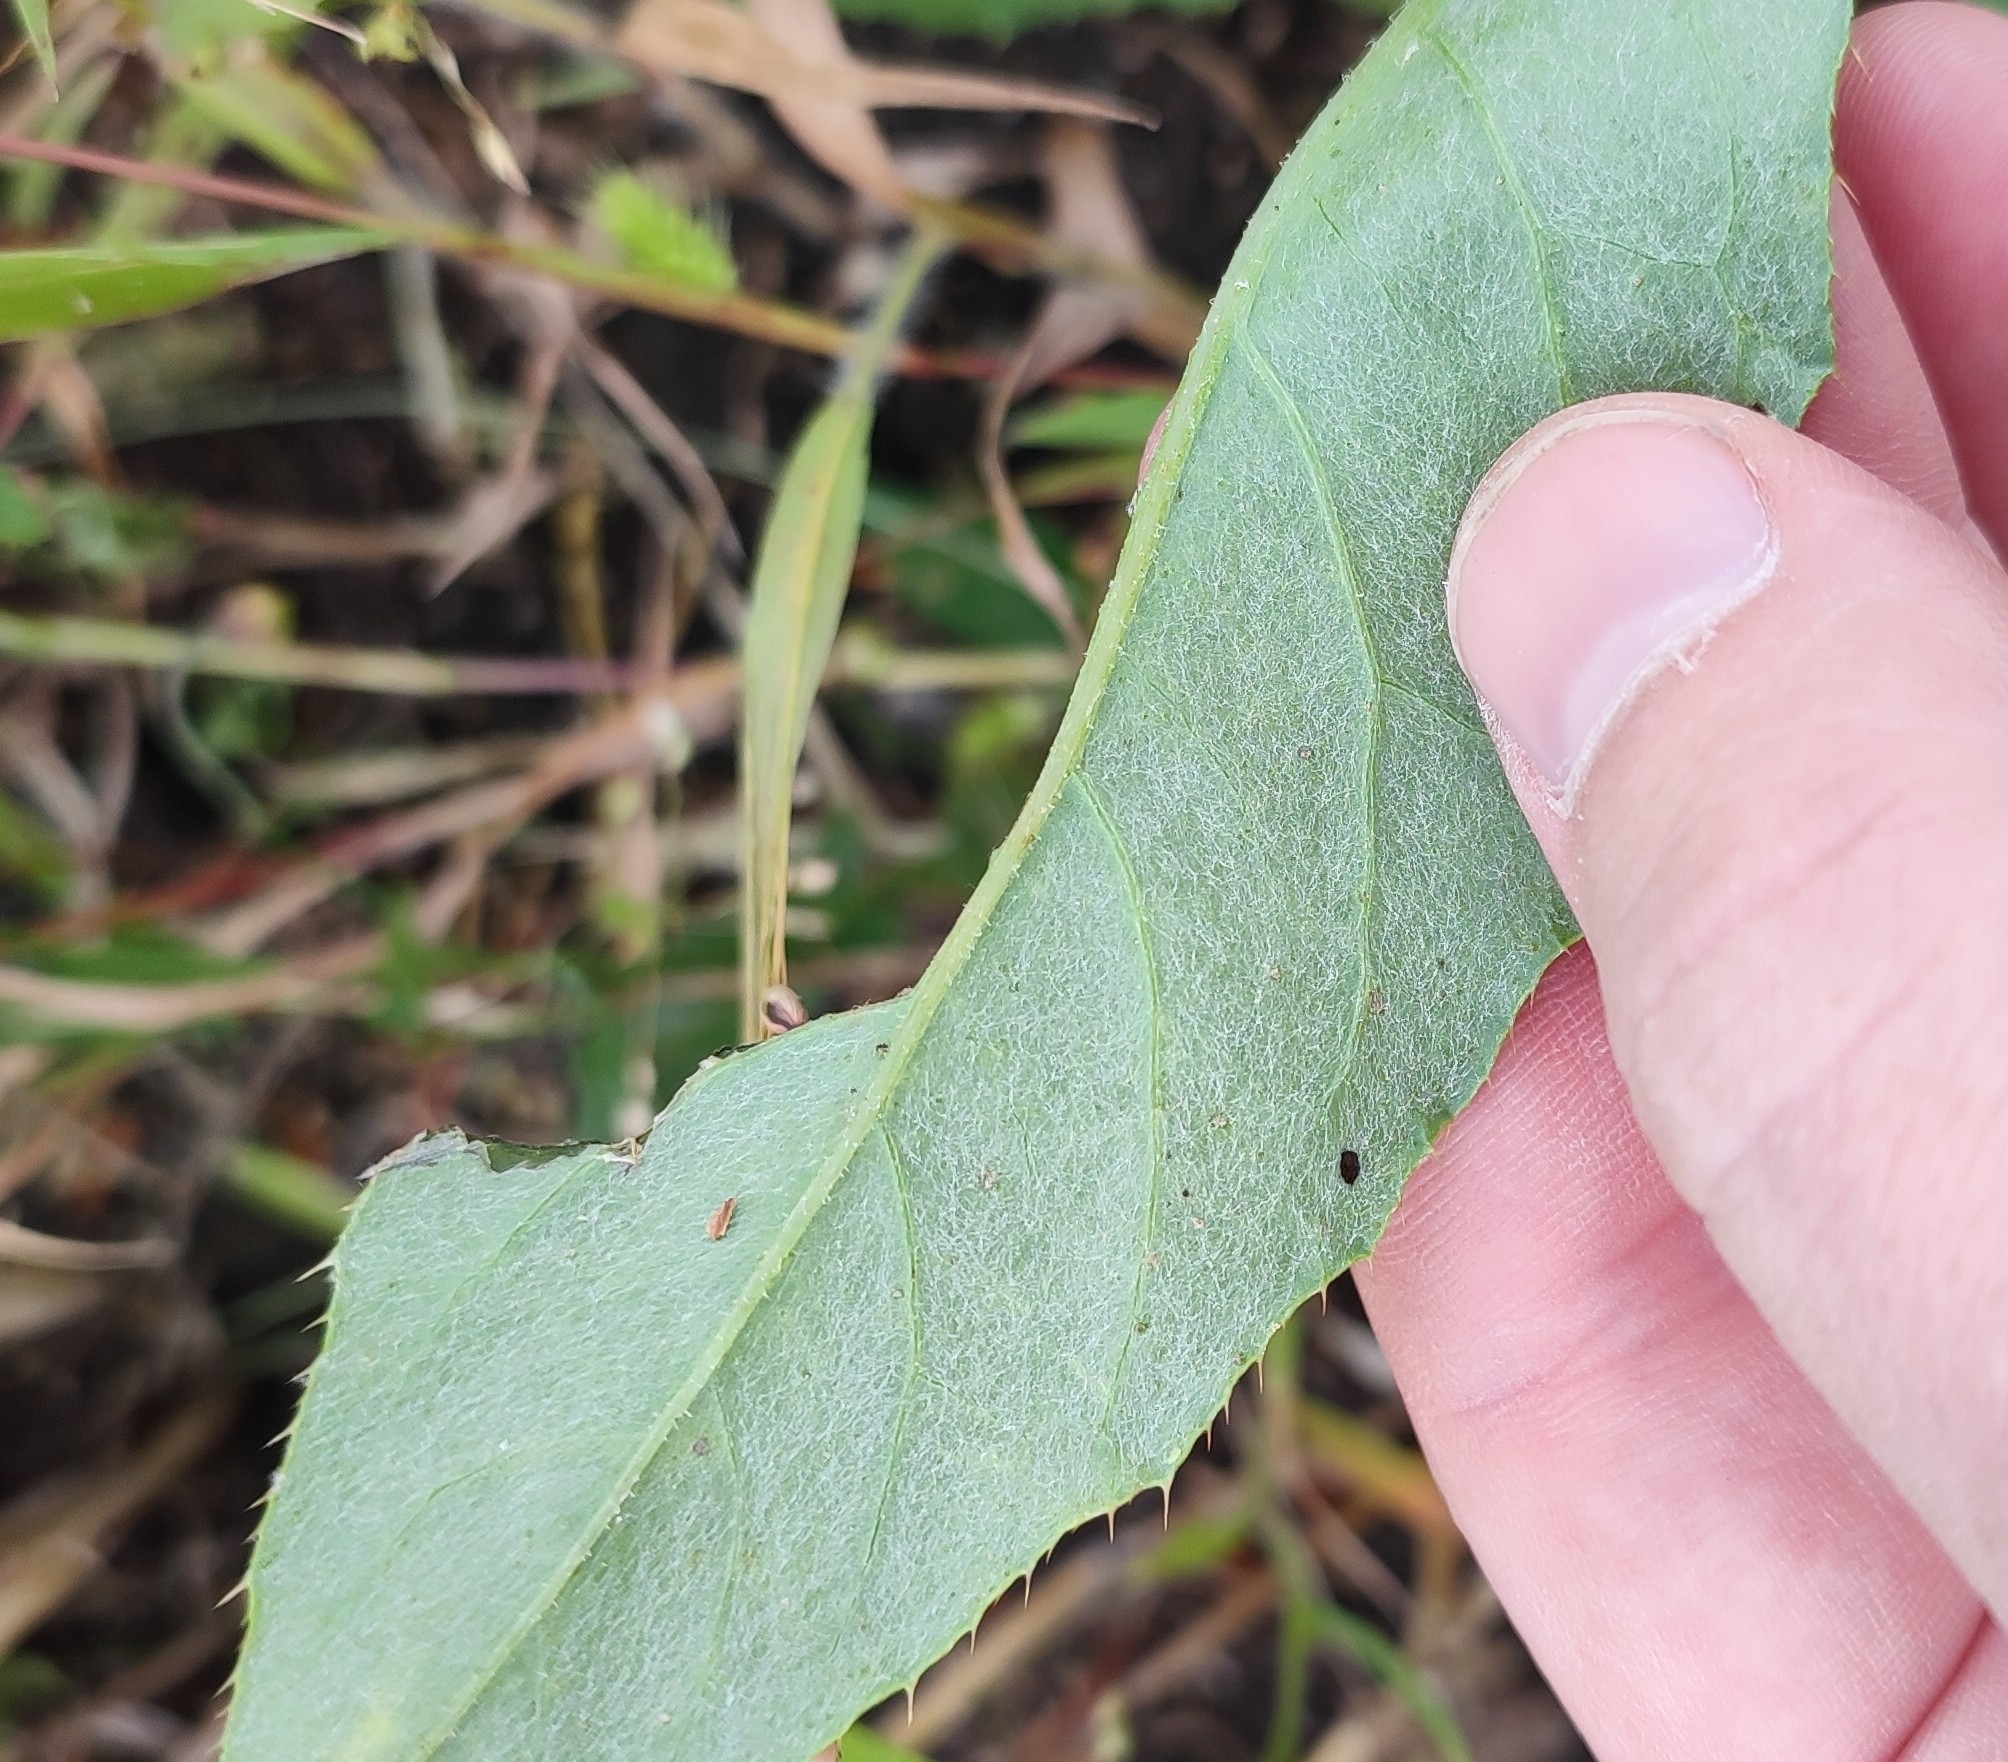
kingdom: Plantae
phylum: Tracheophyta
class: Magnoliopsida
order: Asterales
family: Asteraceae
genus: Cirsium
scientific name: Cirsium arvense
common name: Creeping thistle
